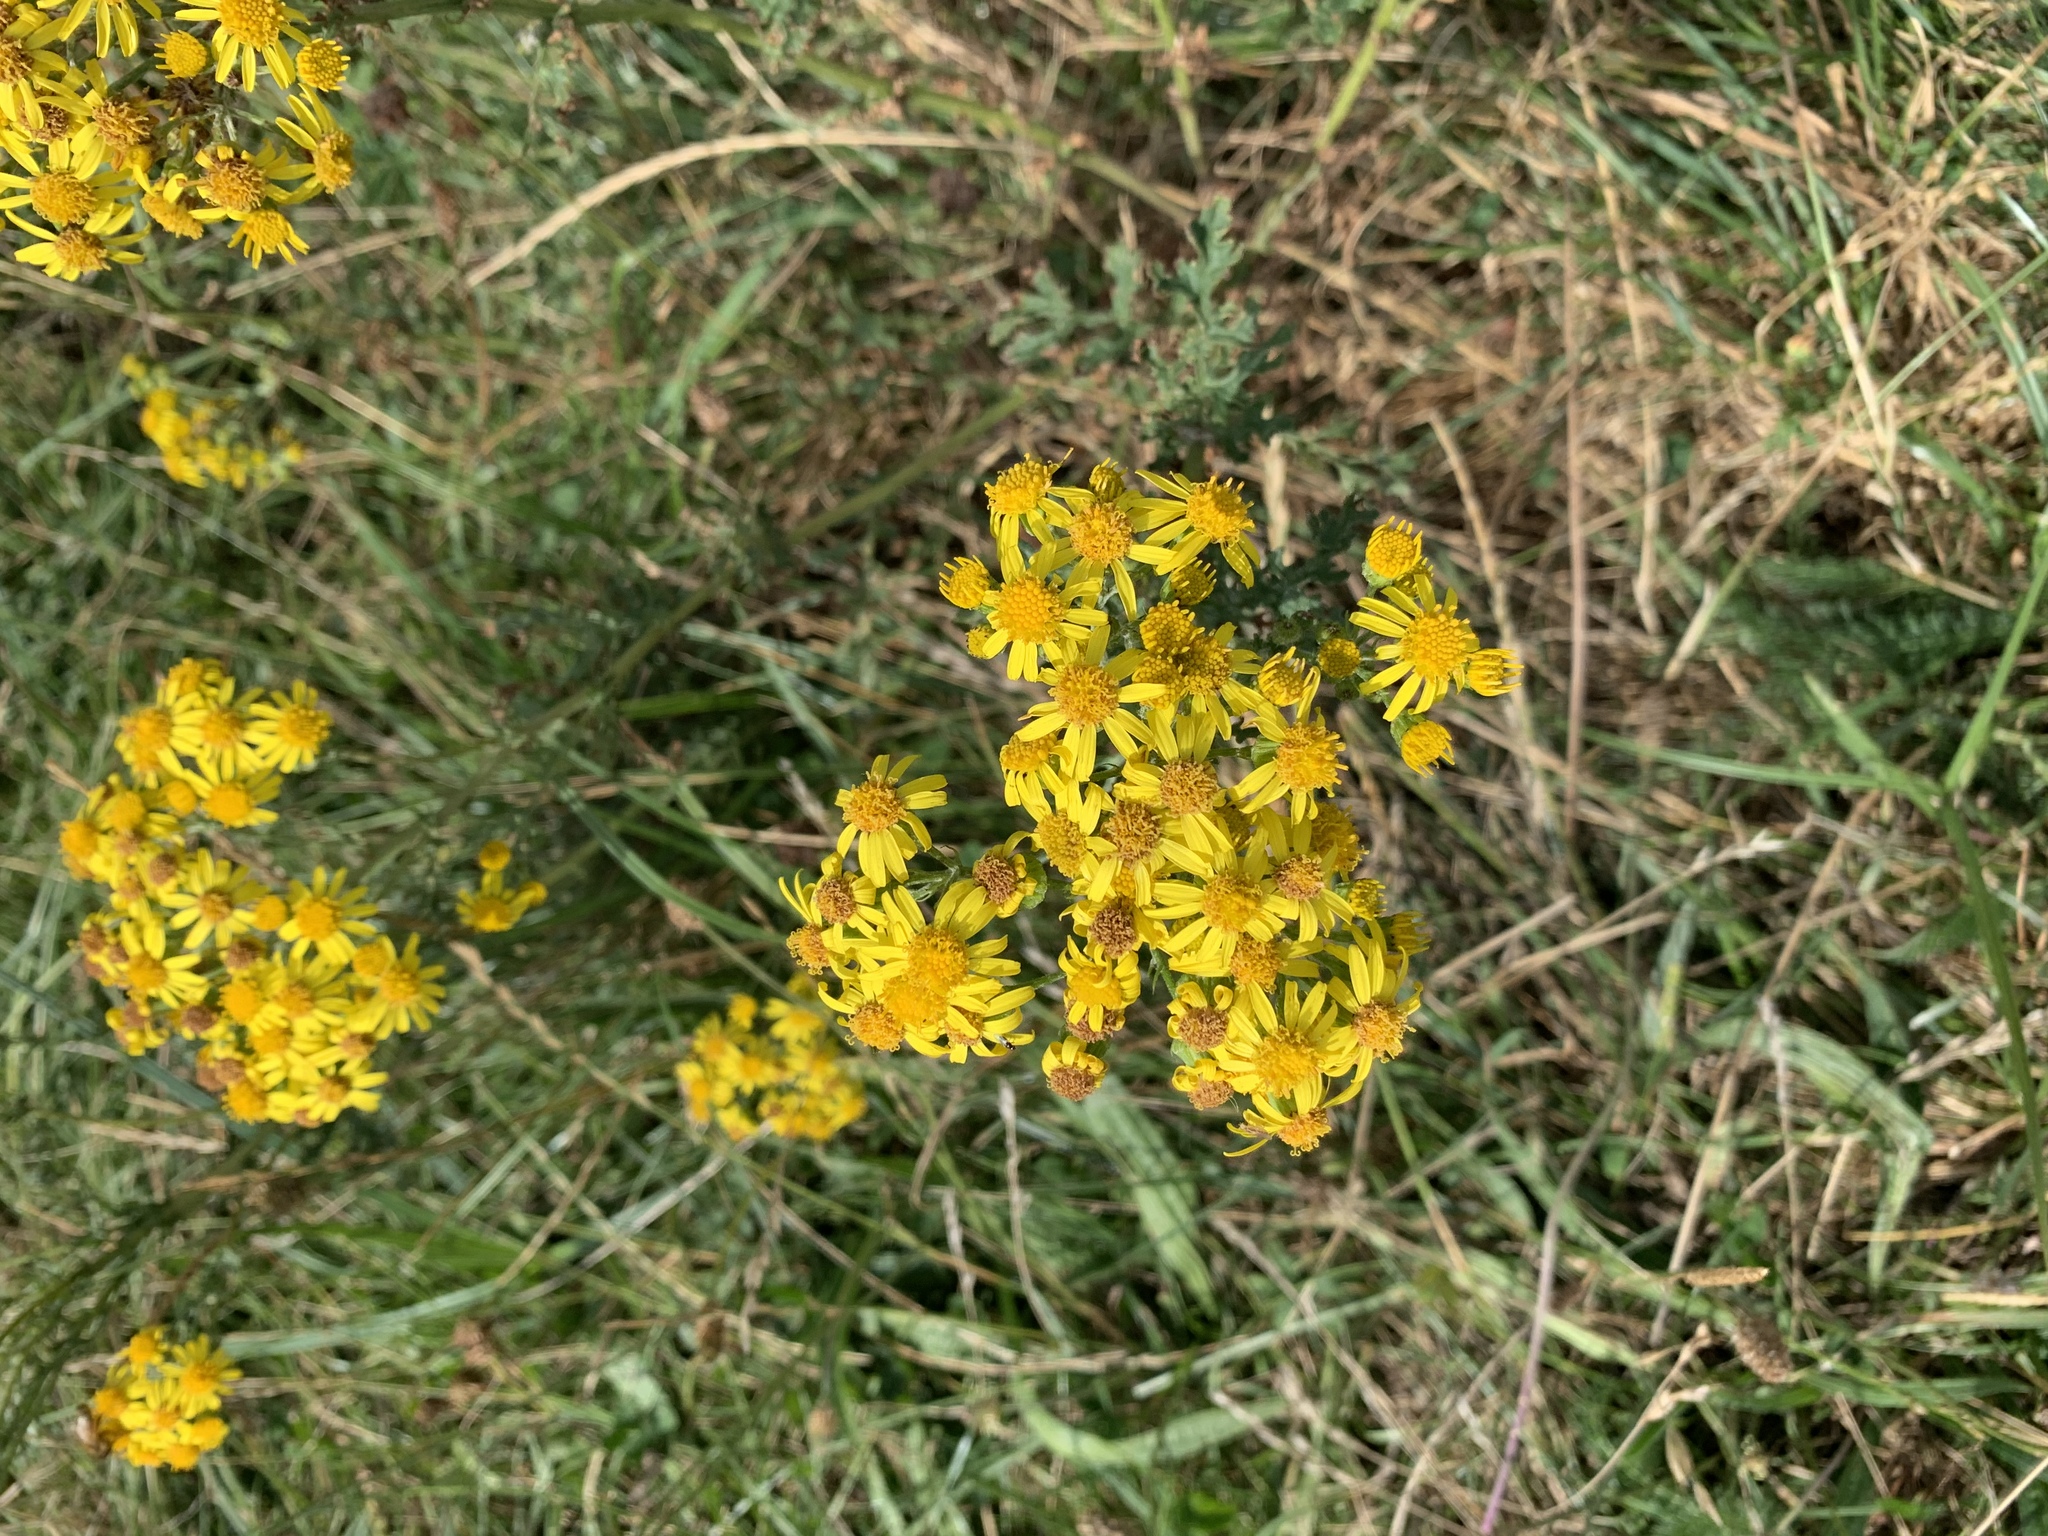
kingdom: Plantae
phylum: Tracheophyta
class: Magnoliopsida
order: Asterales
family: Asteraceae
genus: Jacobaea
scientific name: Jacobaea vulgaris
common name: Stinking willie
